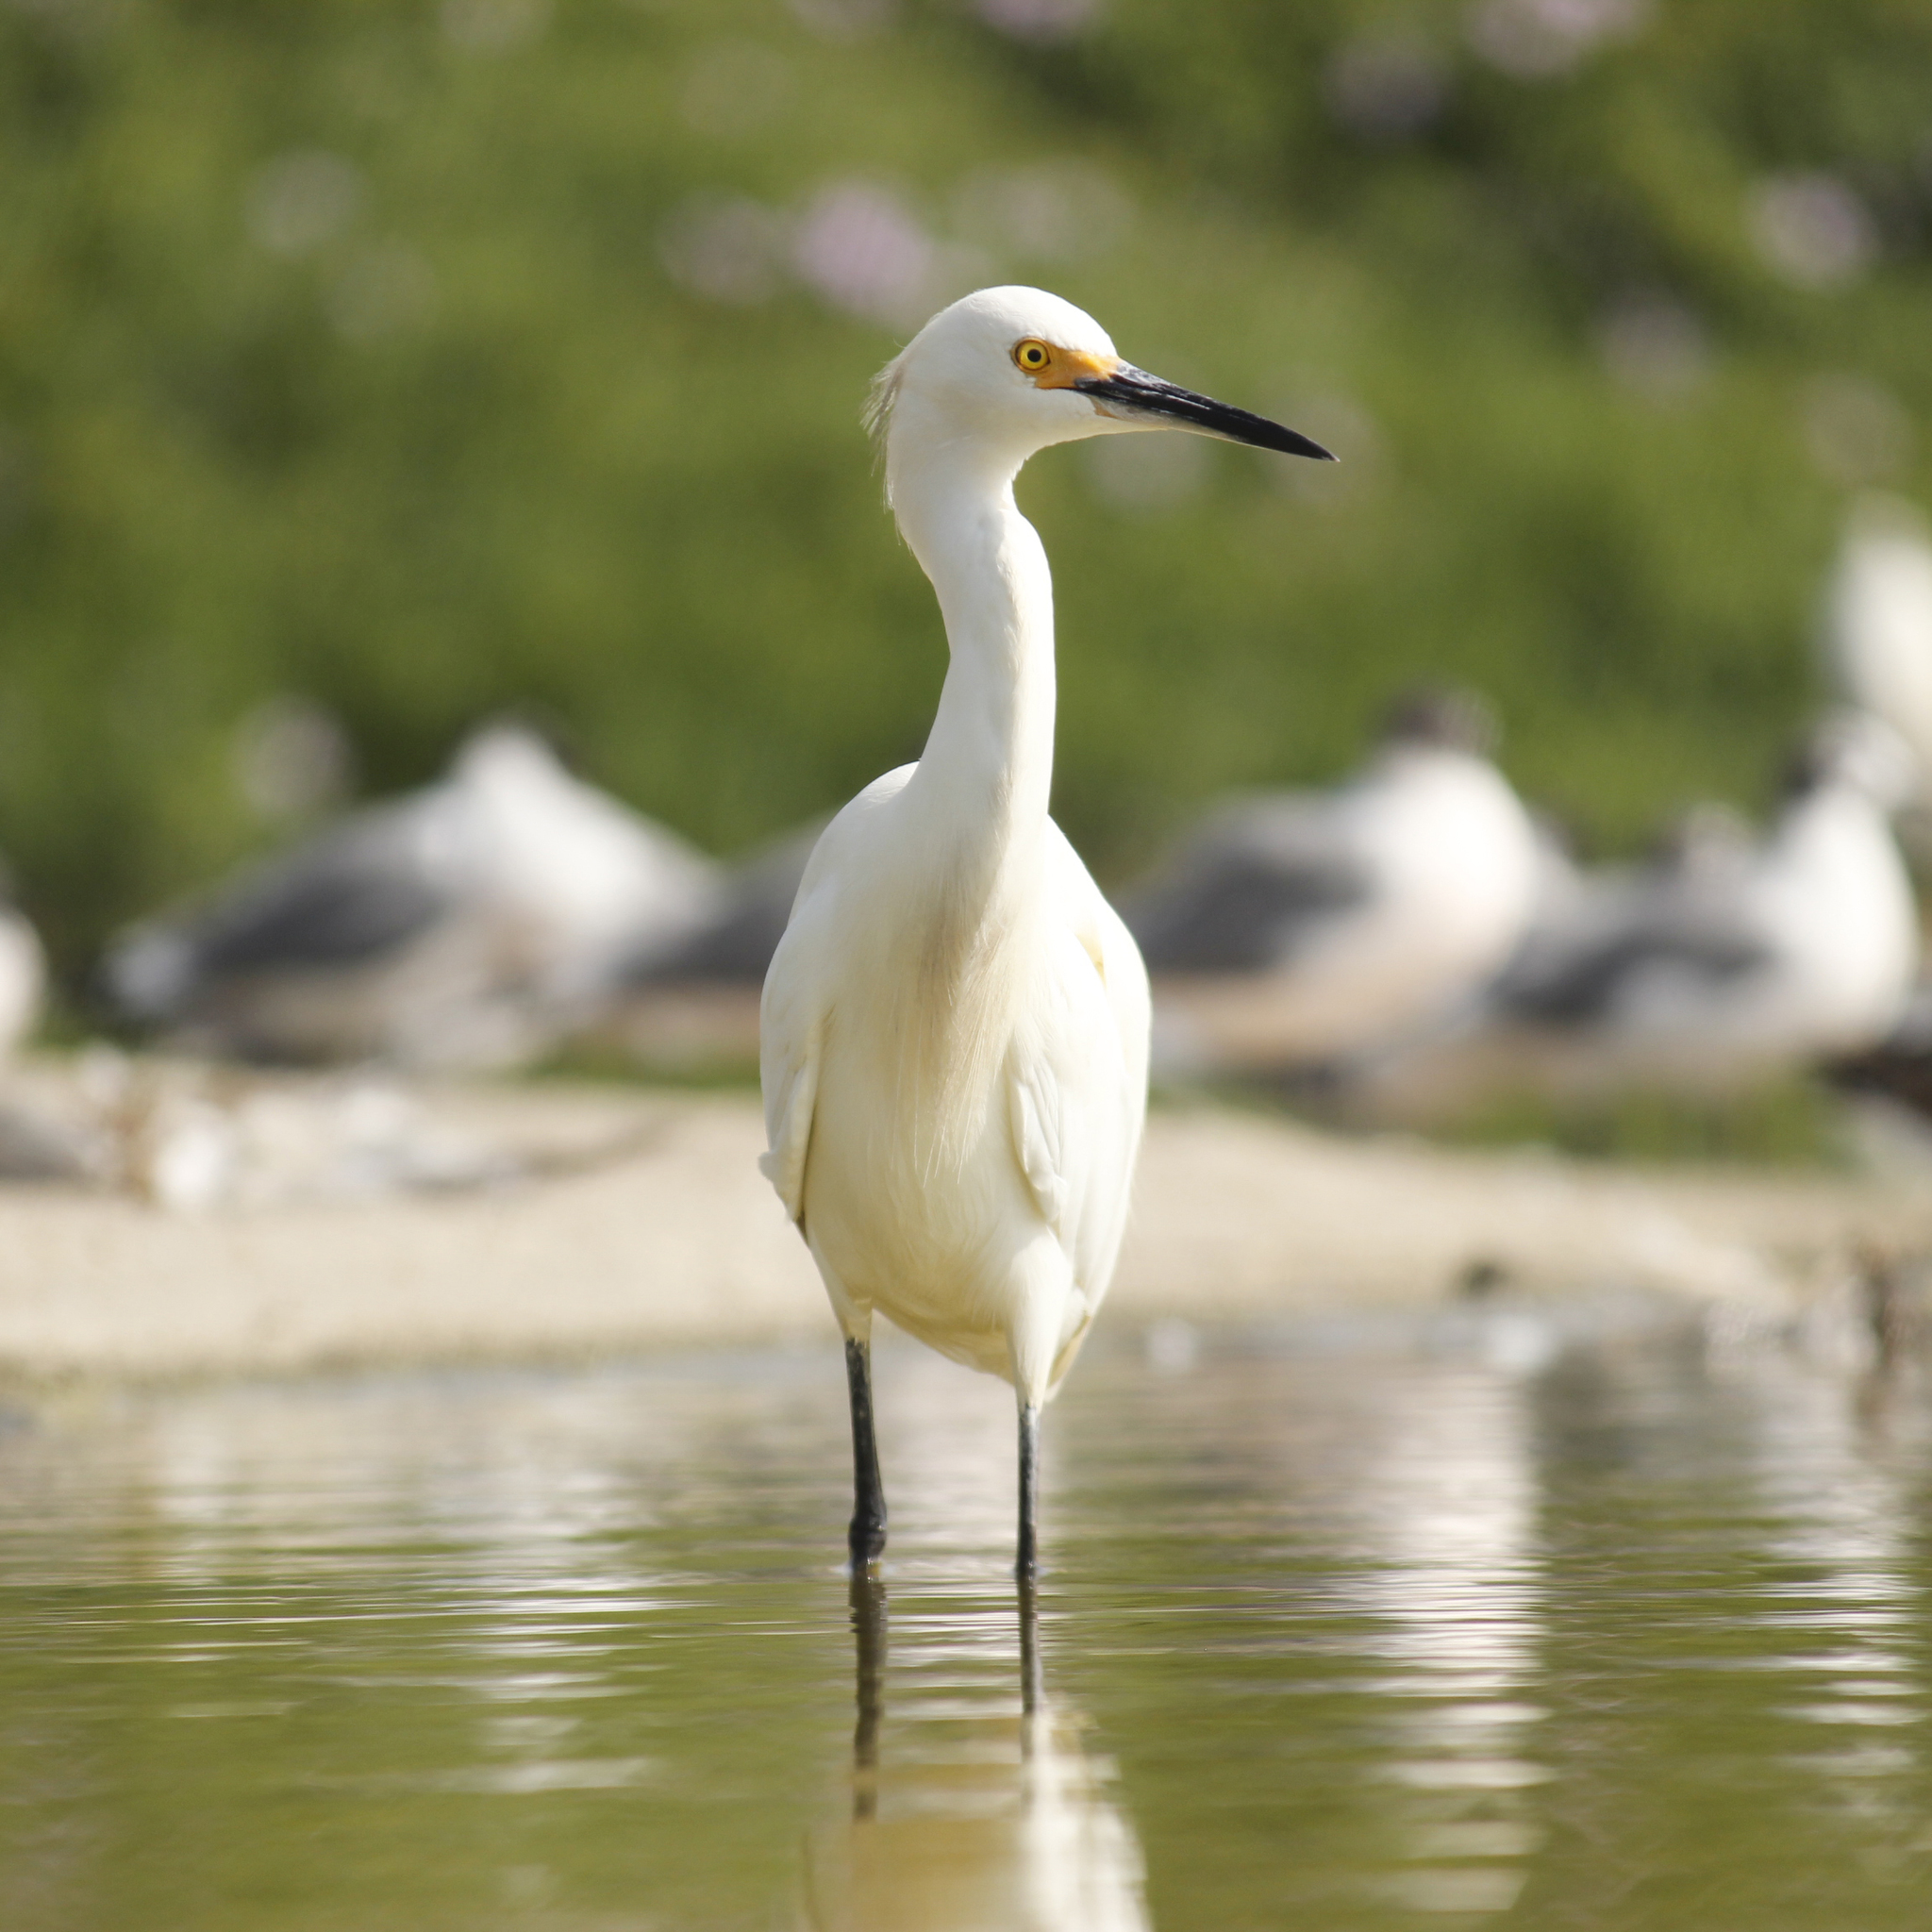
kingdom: Animalia
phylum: Chordata
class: Aves
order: Pelecaniformes
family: Ardeidae
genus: Egretta
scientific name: Egretta thula
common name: Snowy egret
